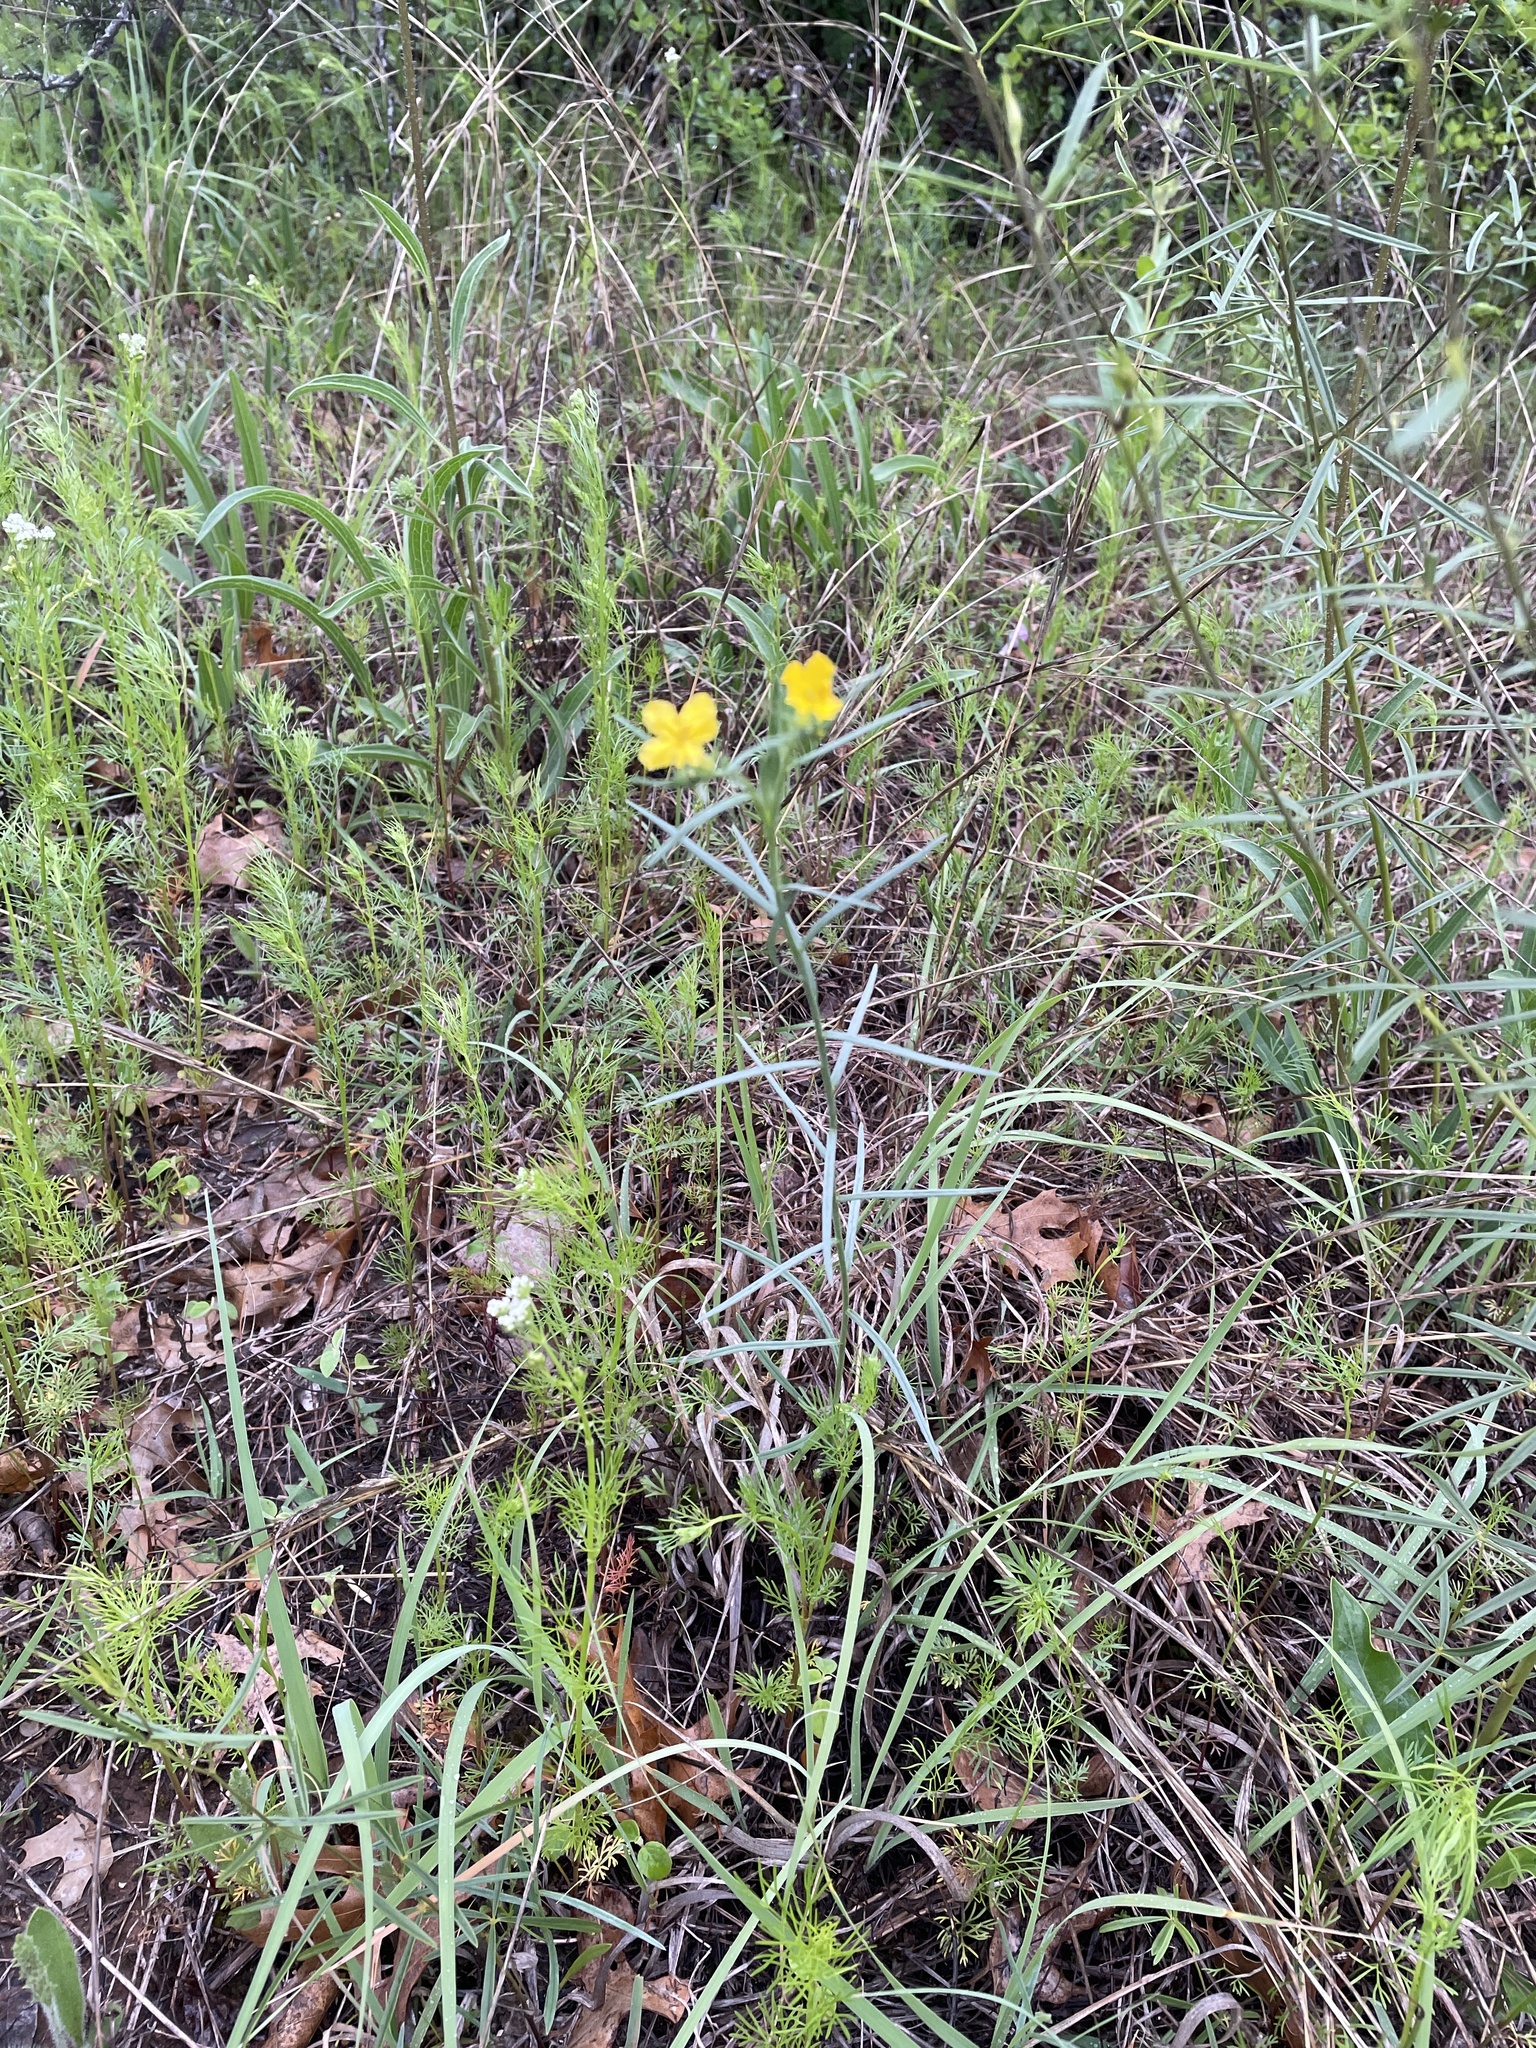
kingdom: Plantae
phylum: Tracheophyta
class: Magnoliopsida
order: Boraginales
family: Boraginaceae
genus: Lithospermum
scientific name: Lithospermum incisum
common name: Fringed gromwell
